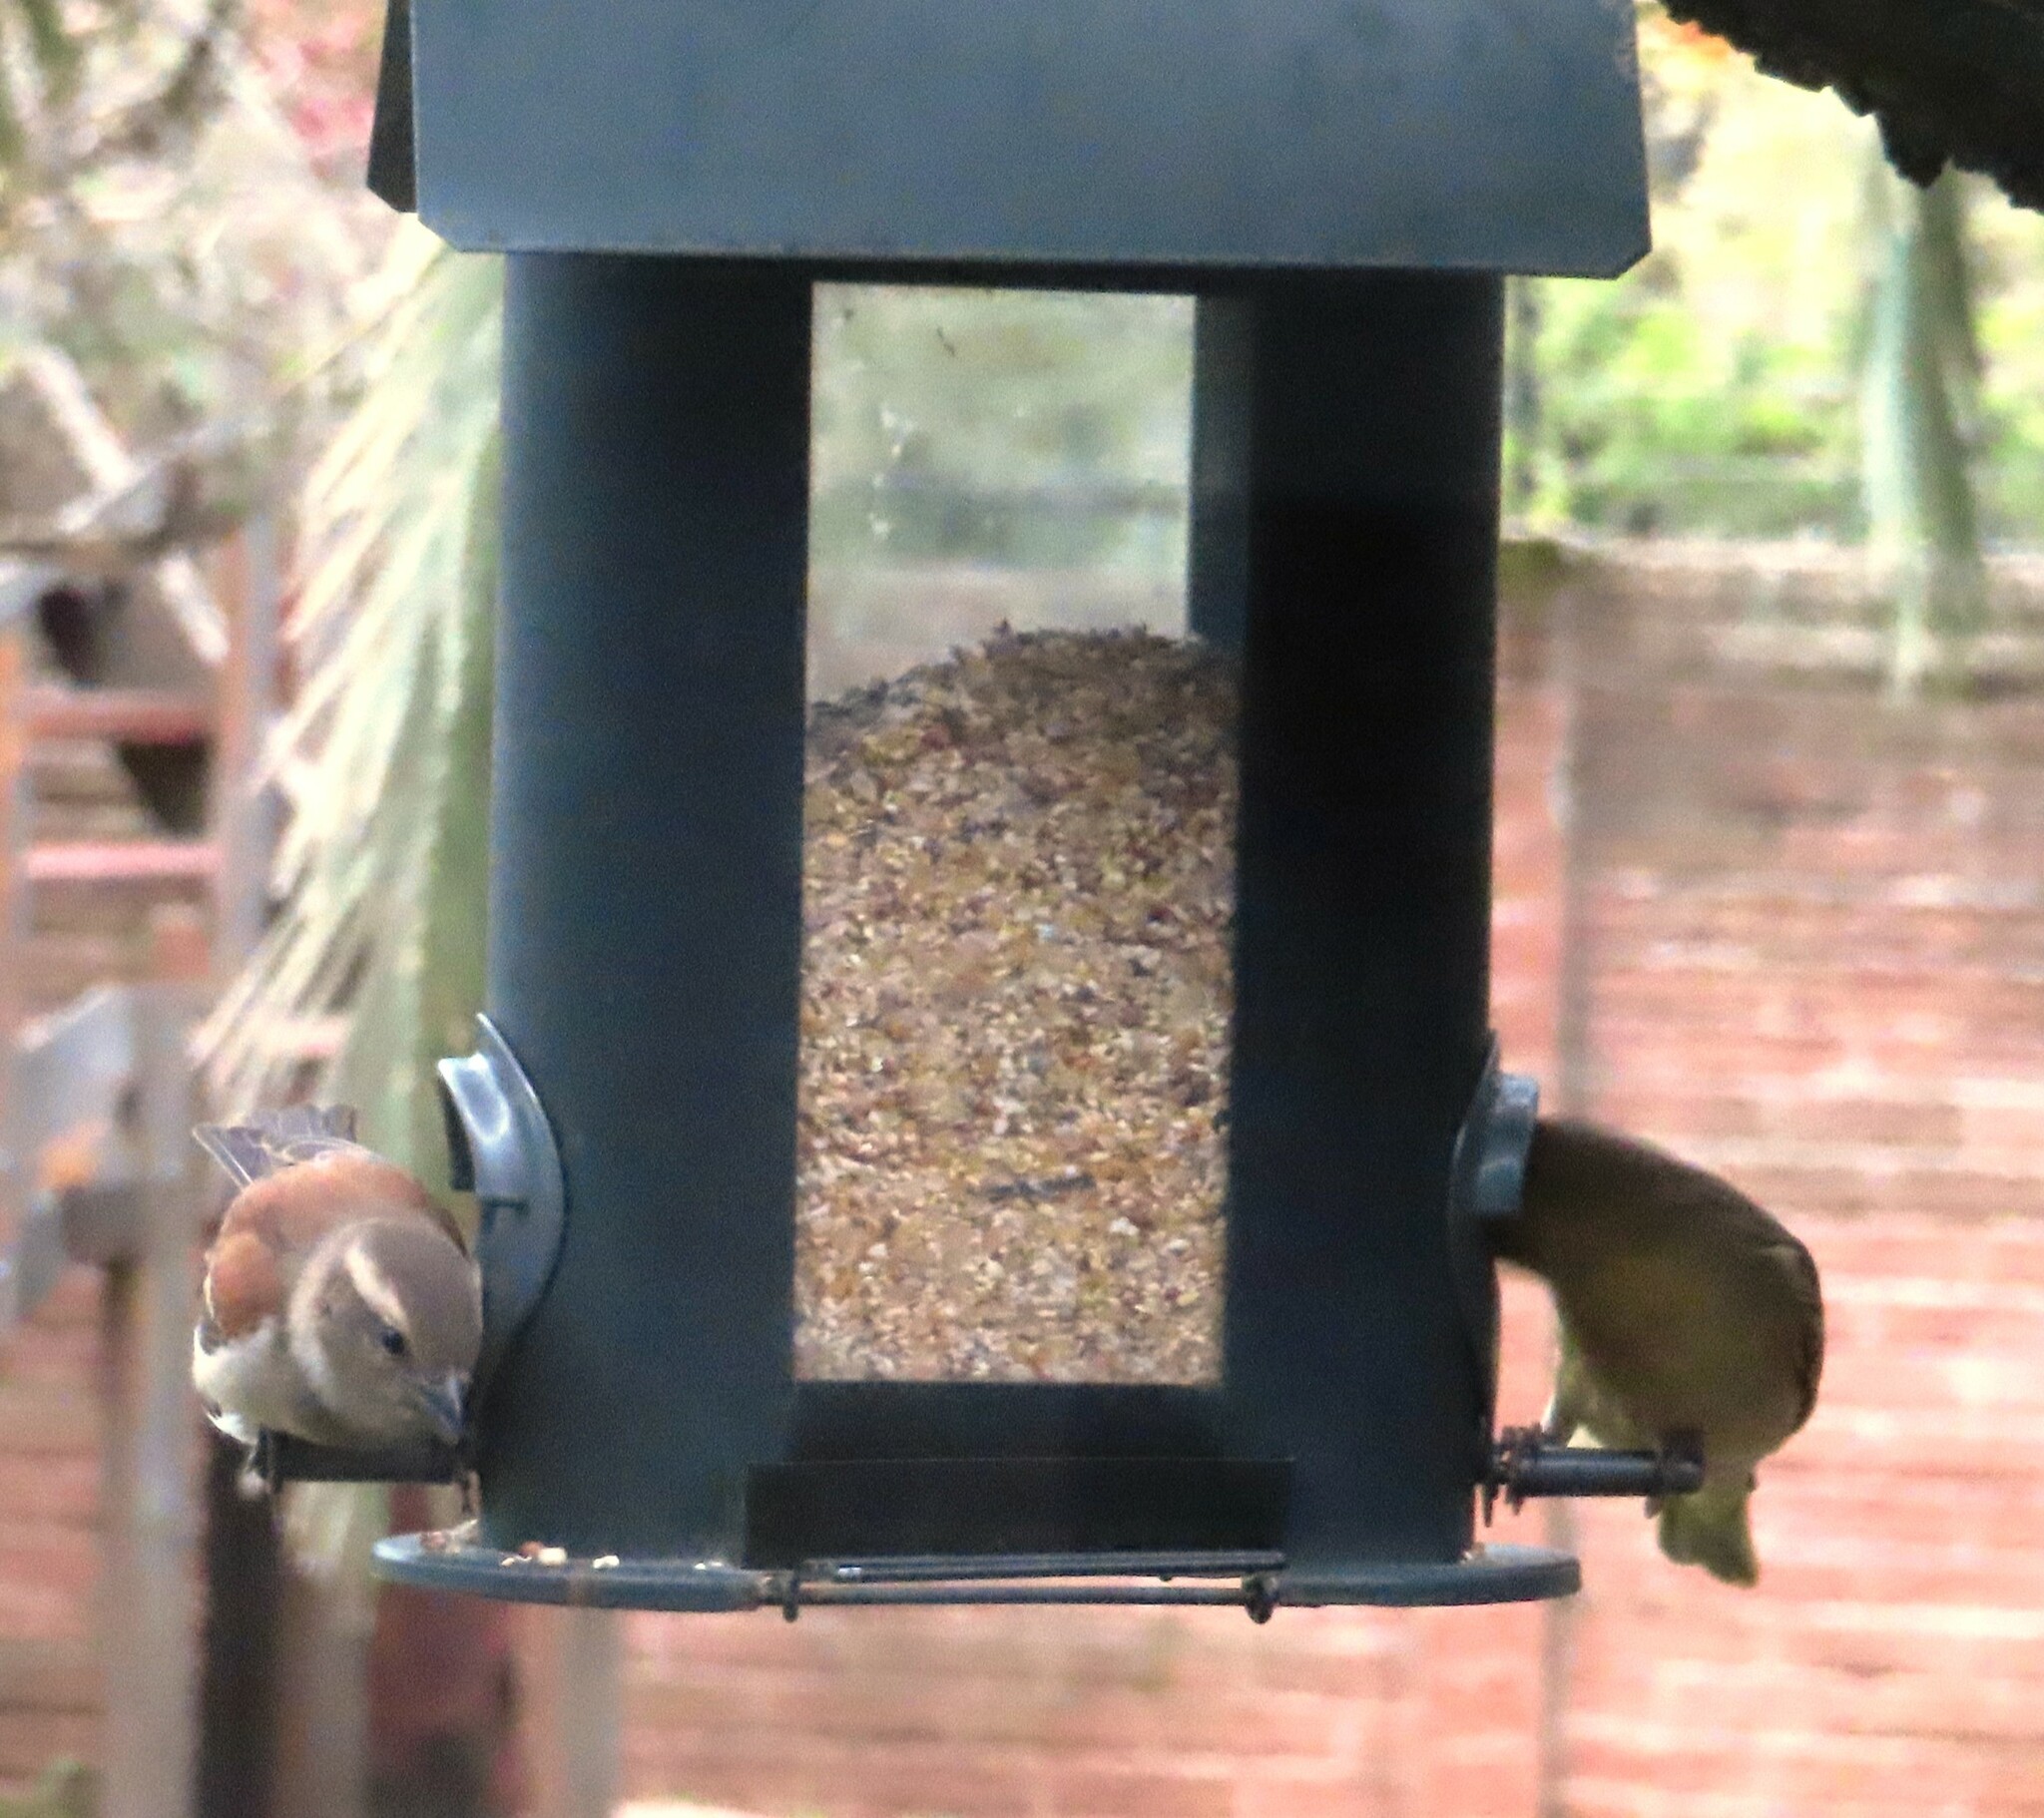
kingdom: Animalia
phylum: Chordata
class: Aves
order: Passeriformes
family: Passeridae
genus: Passer
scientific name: Passer melanurus
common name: Cape sparrow
